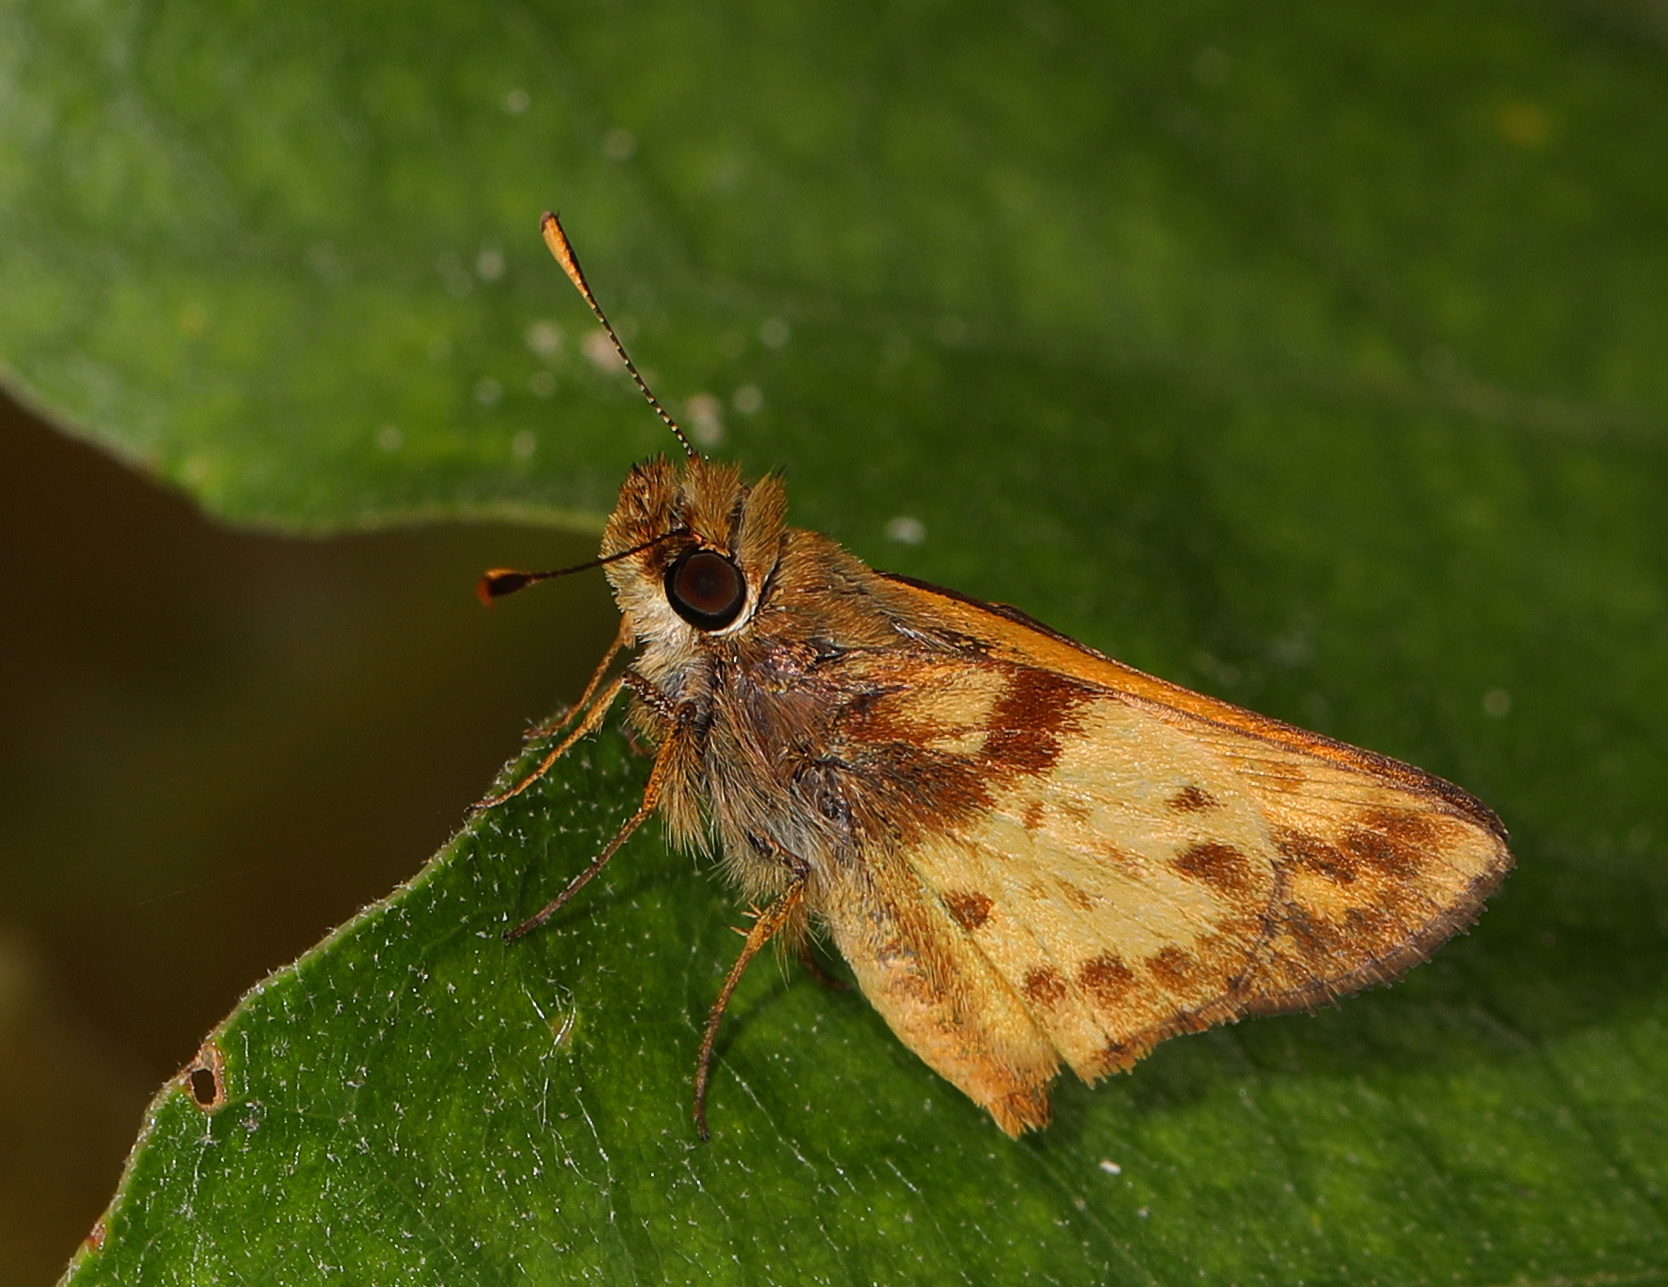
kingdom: Animalia
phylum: Arthropoda
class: Insecta
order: Lepidoptera
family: Hesperiidae
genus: Lon
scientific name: Lon zabulon
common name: Zabulon skipper
